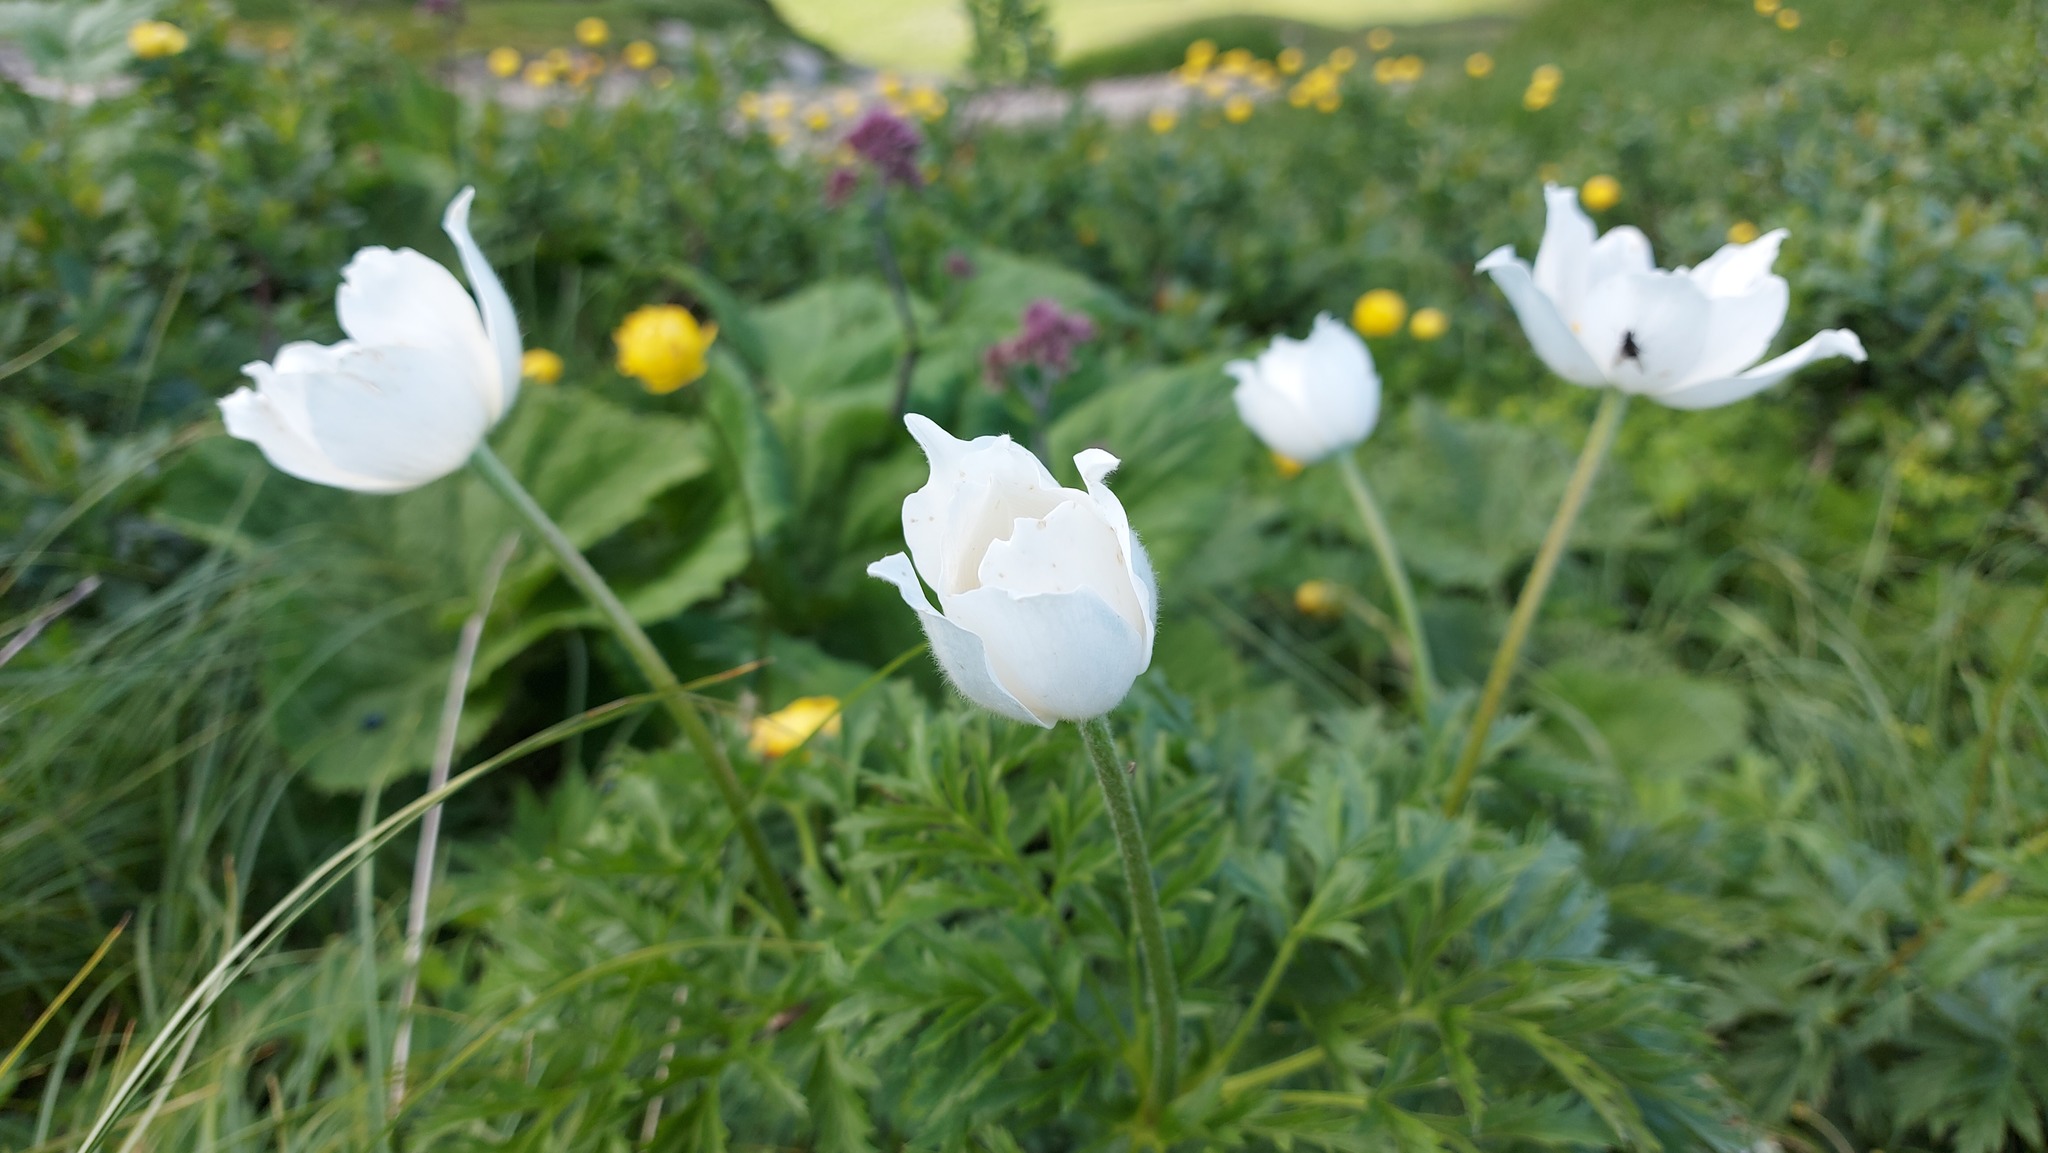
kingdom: Plantae
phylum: Tracheophyta
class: Magnoliopsida
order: Ranunculales
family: Ranunculaceae
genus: Pulsatilla
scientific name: Pulsatilla alpina
